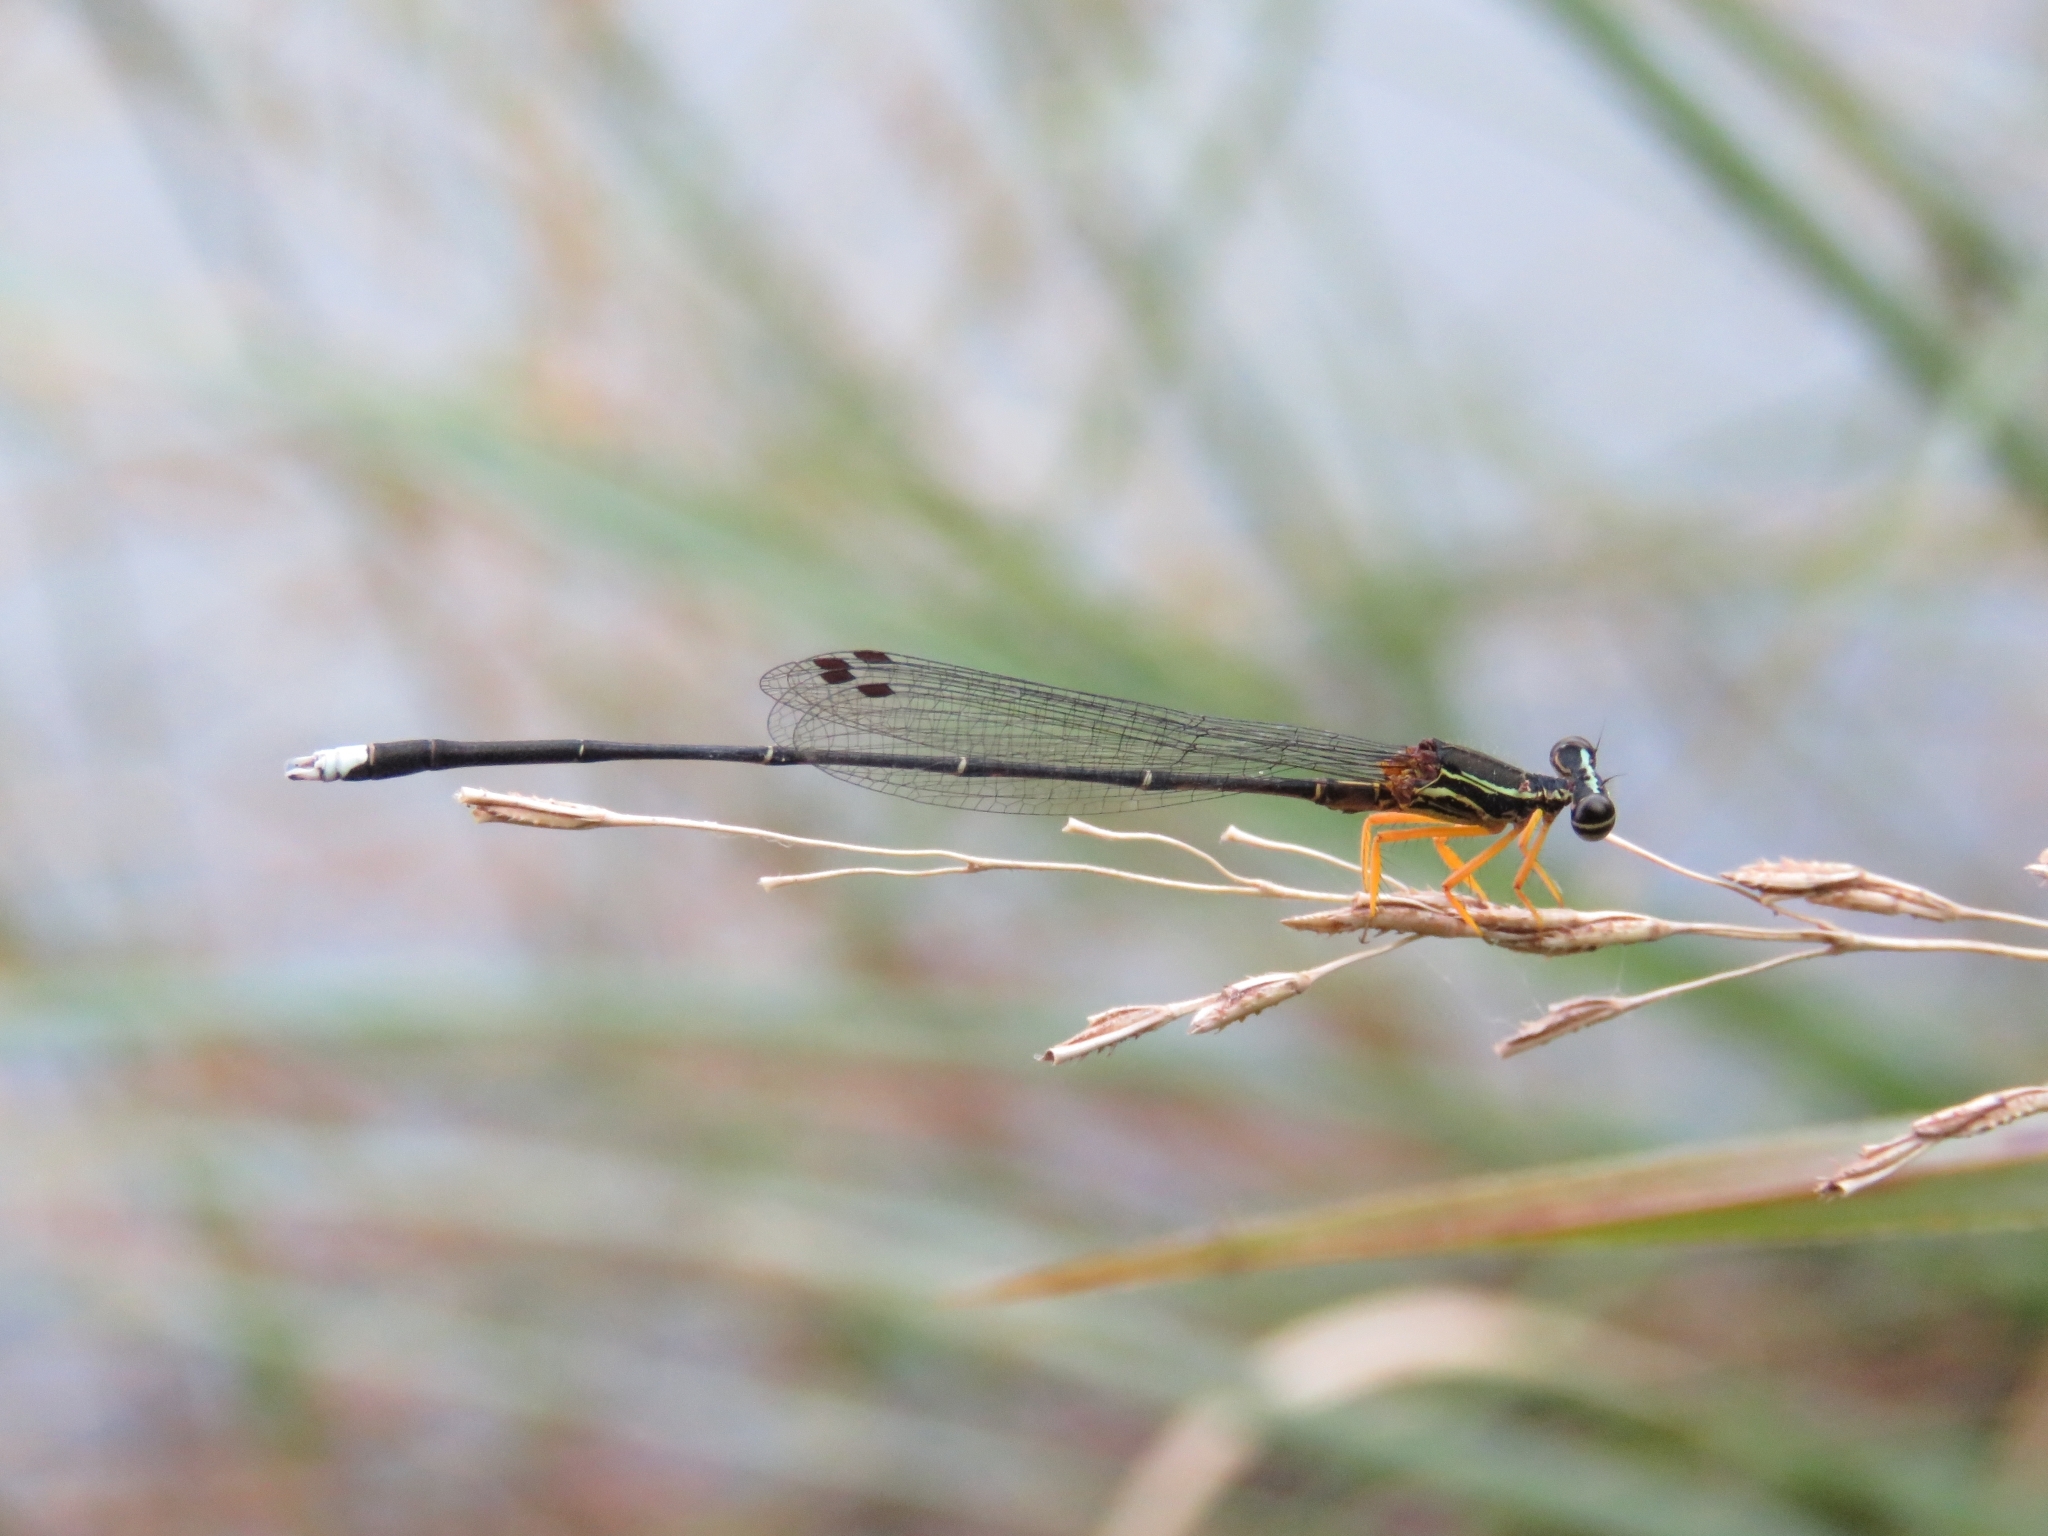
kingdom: Animalia
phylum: Arthropoda
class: Insecta
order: Odonata
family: Platycnemididae
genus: Copera
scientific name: Copera marginipes
